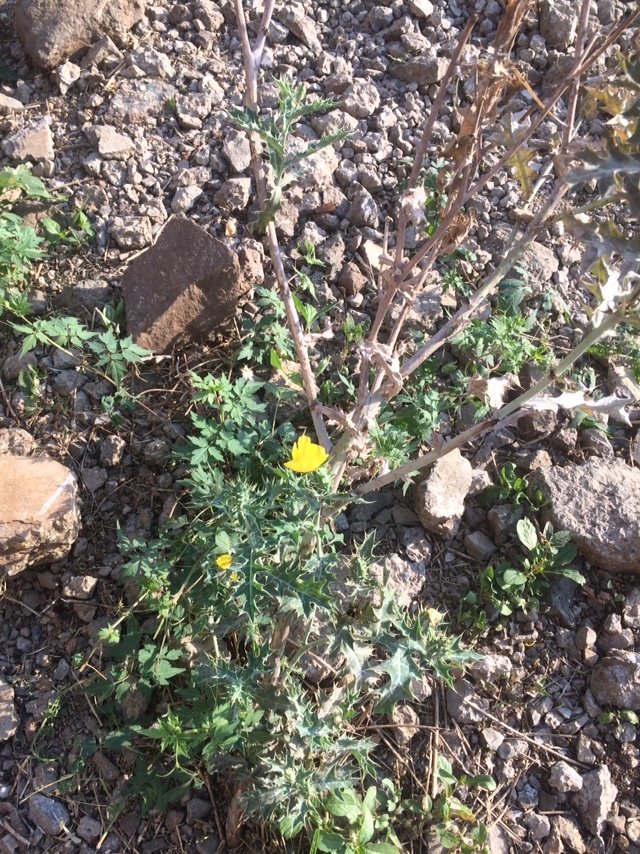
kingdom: Plantae
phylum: Tracheophyta
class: Magnoliopsida
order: Ranunculales
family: Papaveraceae
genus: Argemone
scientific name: Argemone mexicana
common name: Mexican poppy
